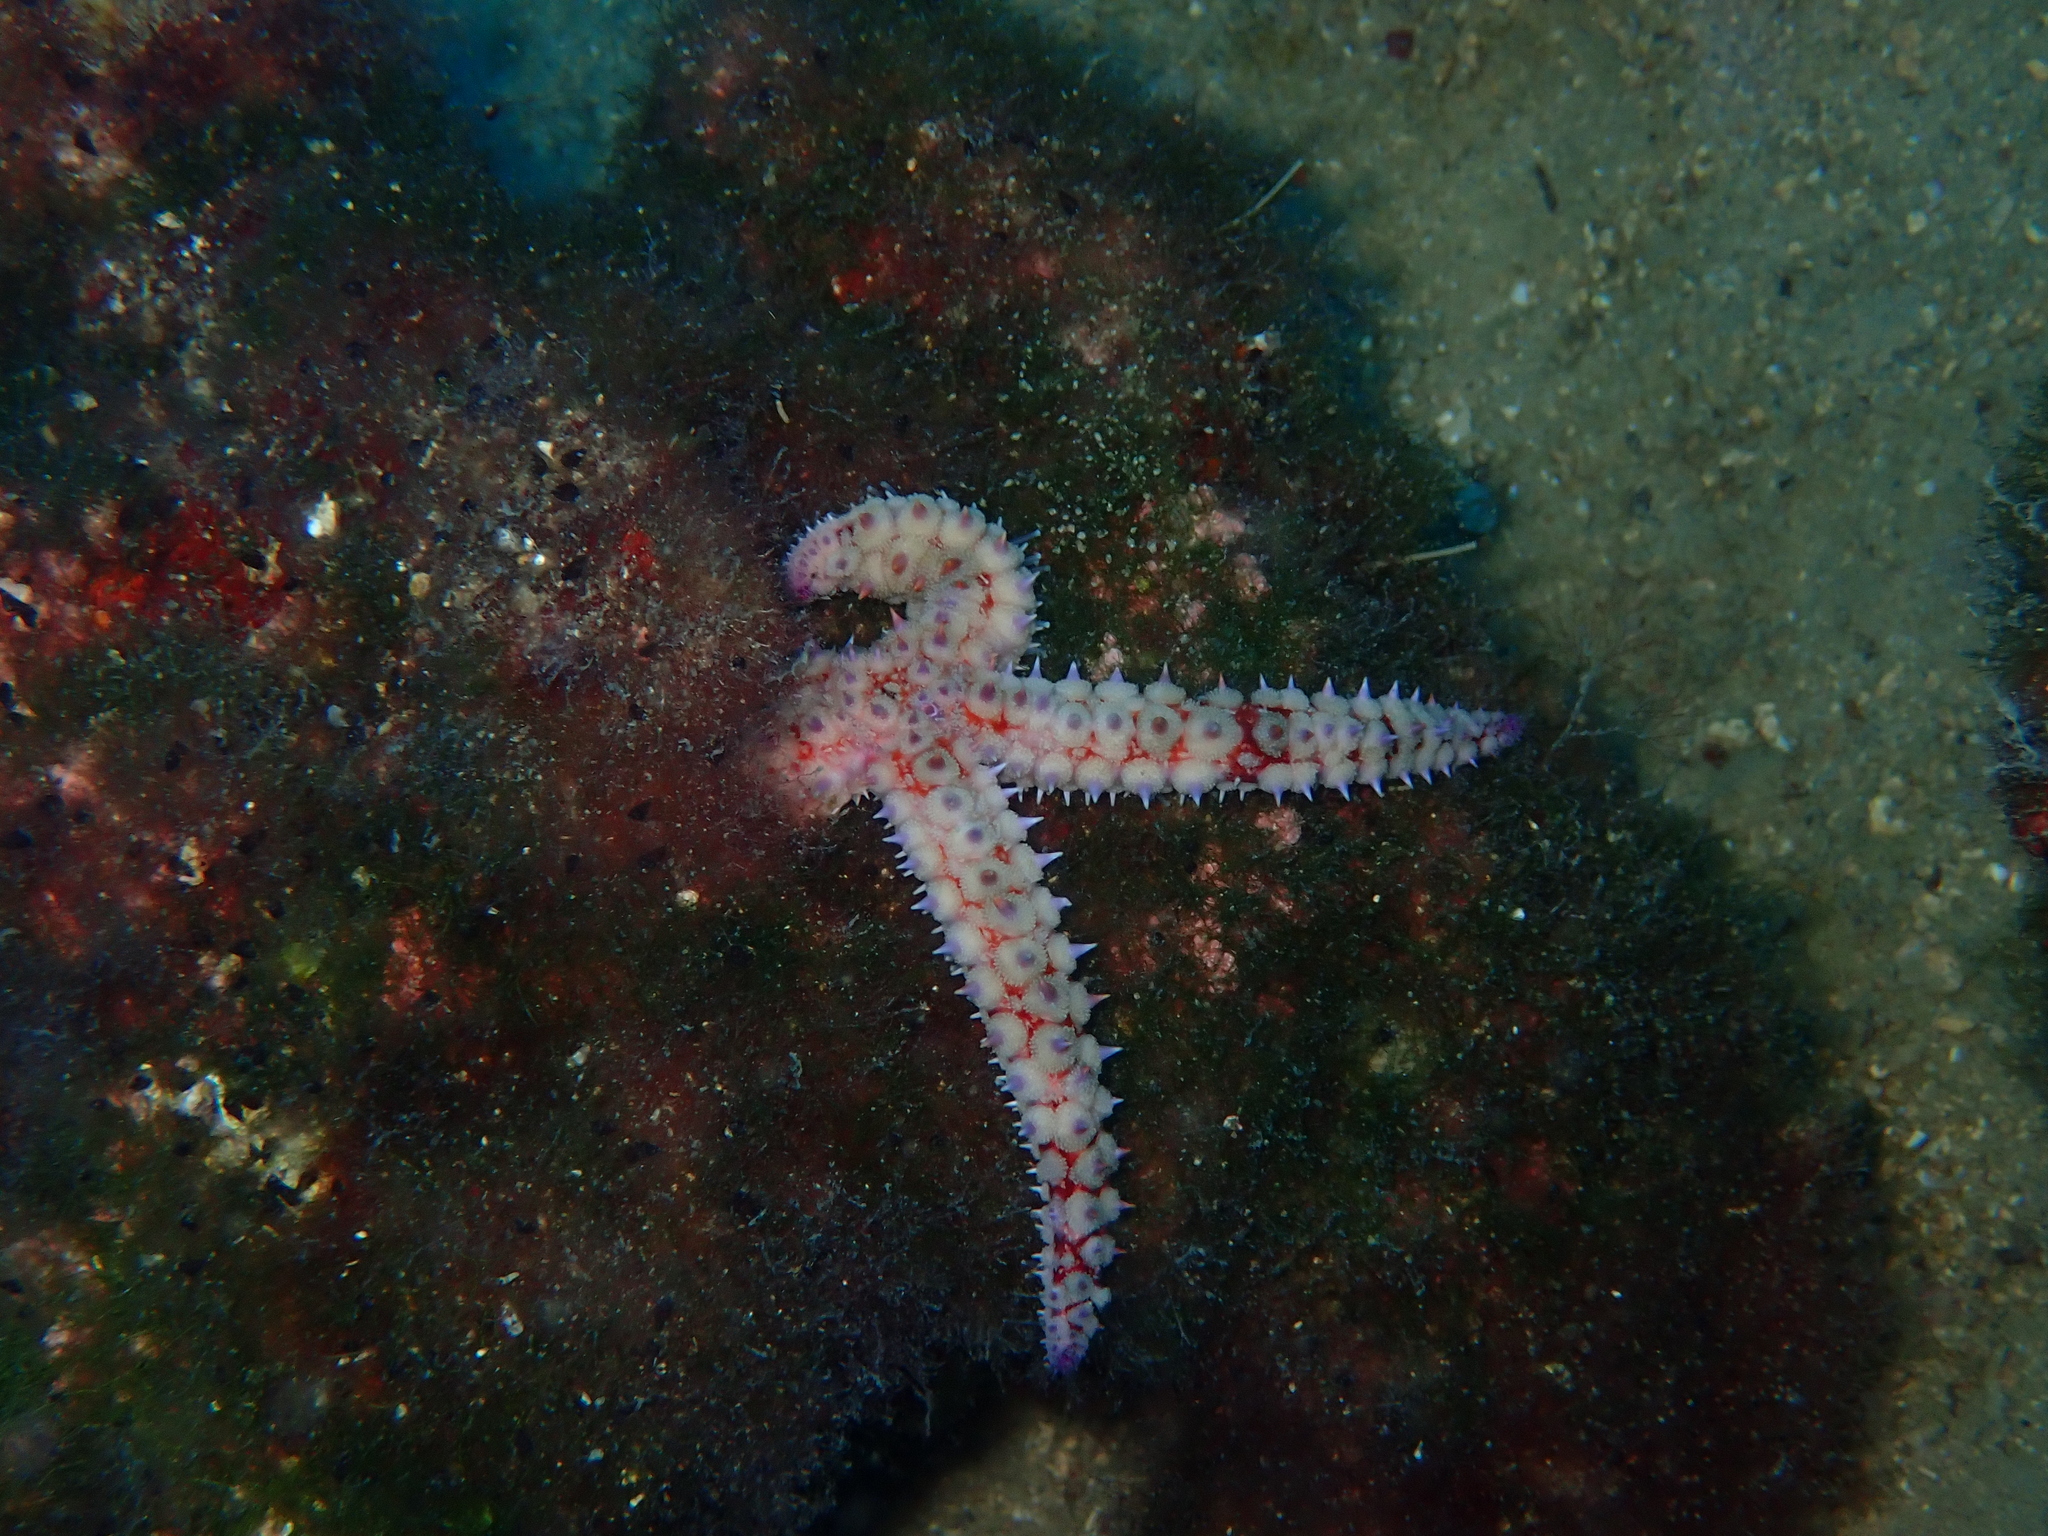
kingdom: Animalia
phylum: Echinodermata
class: Asteroidea
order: Forcipulatida
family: Asteriidae
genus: Marthasterias
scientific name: Marthasterias glacialis
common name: Spiny starfish
